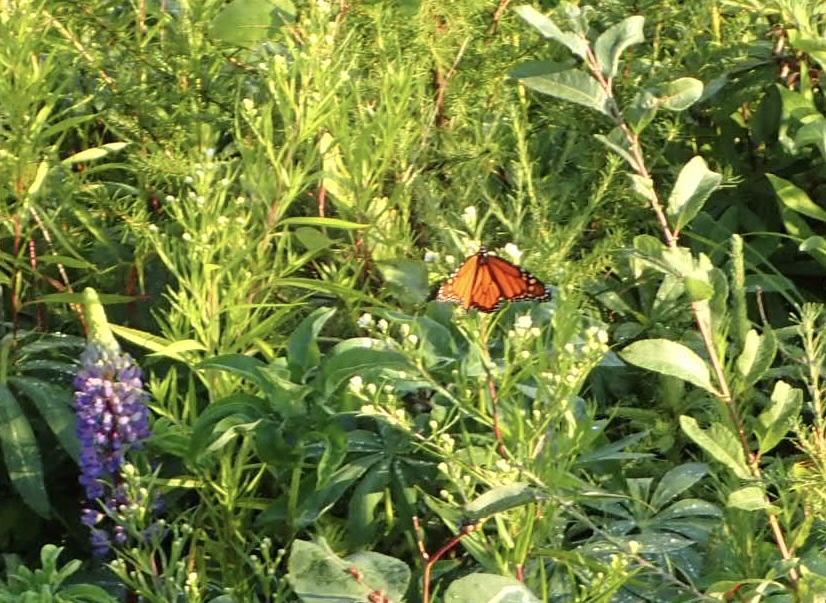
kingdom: Animalia
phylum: Arthropoda
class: Insecta
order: Lepidoptera
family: Nymphalidae
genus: Danaus
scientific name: Danaus plexippus
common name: Monarch
